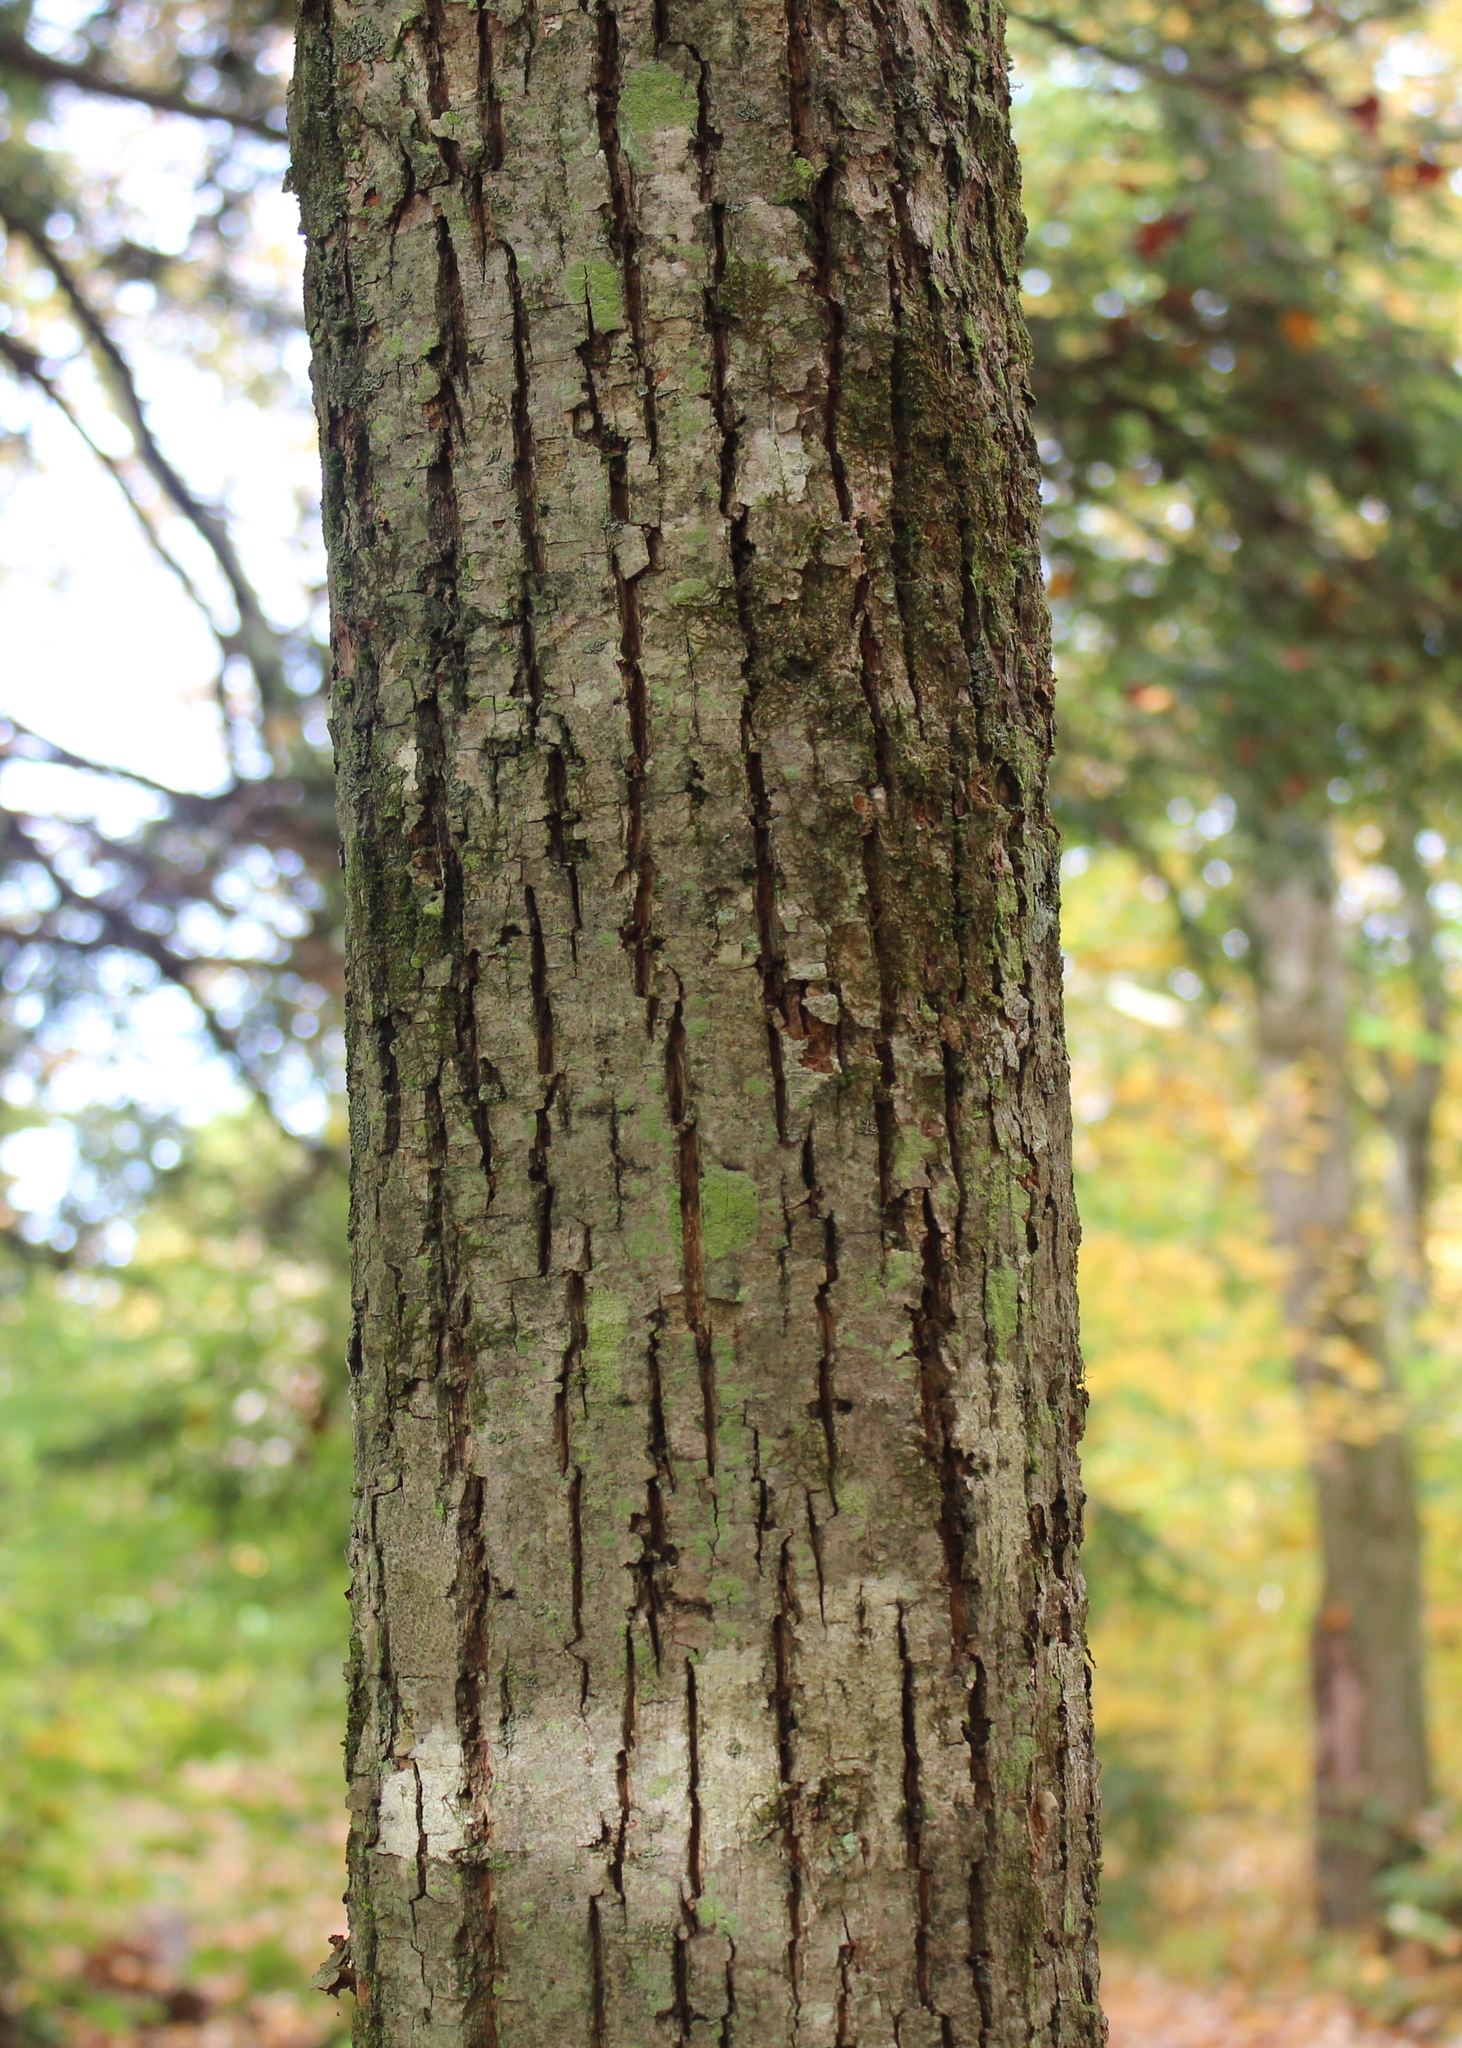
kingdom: Plantae
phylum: Tracheophyta
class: Magnoliopsida
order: Malvales
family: Malvaceae
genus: Tilia
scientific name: Tilia americana
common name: Basswood
